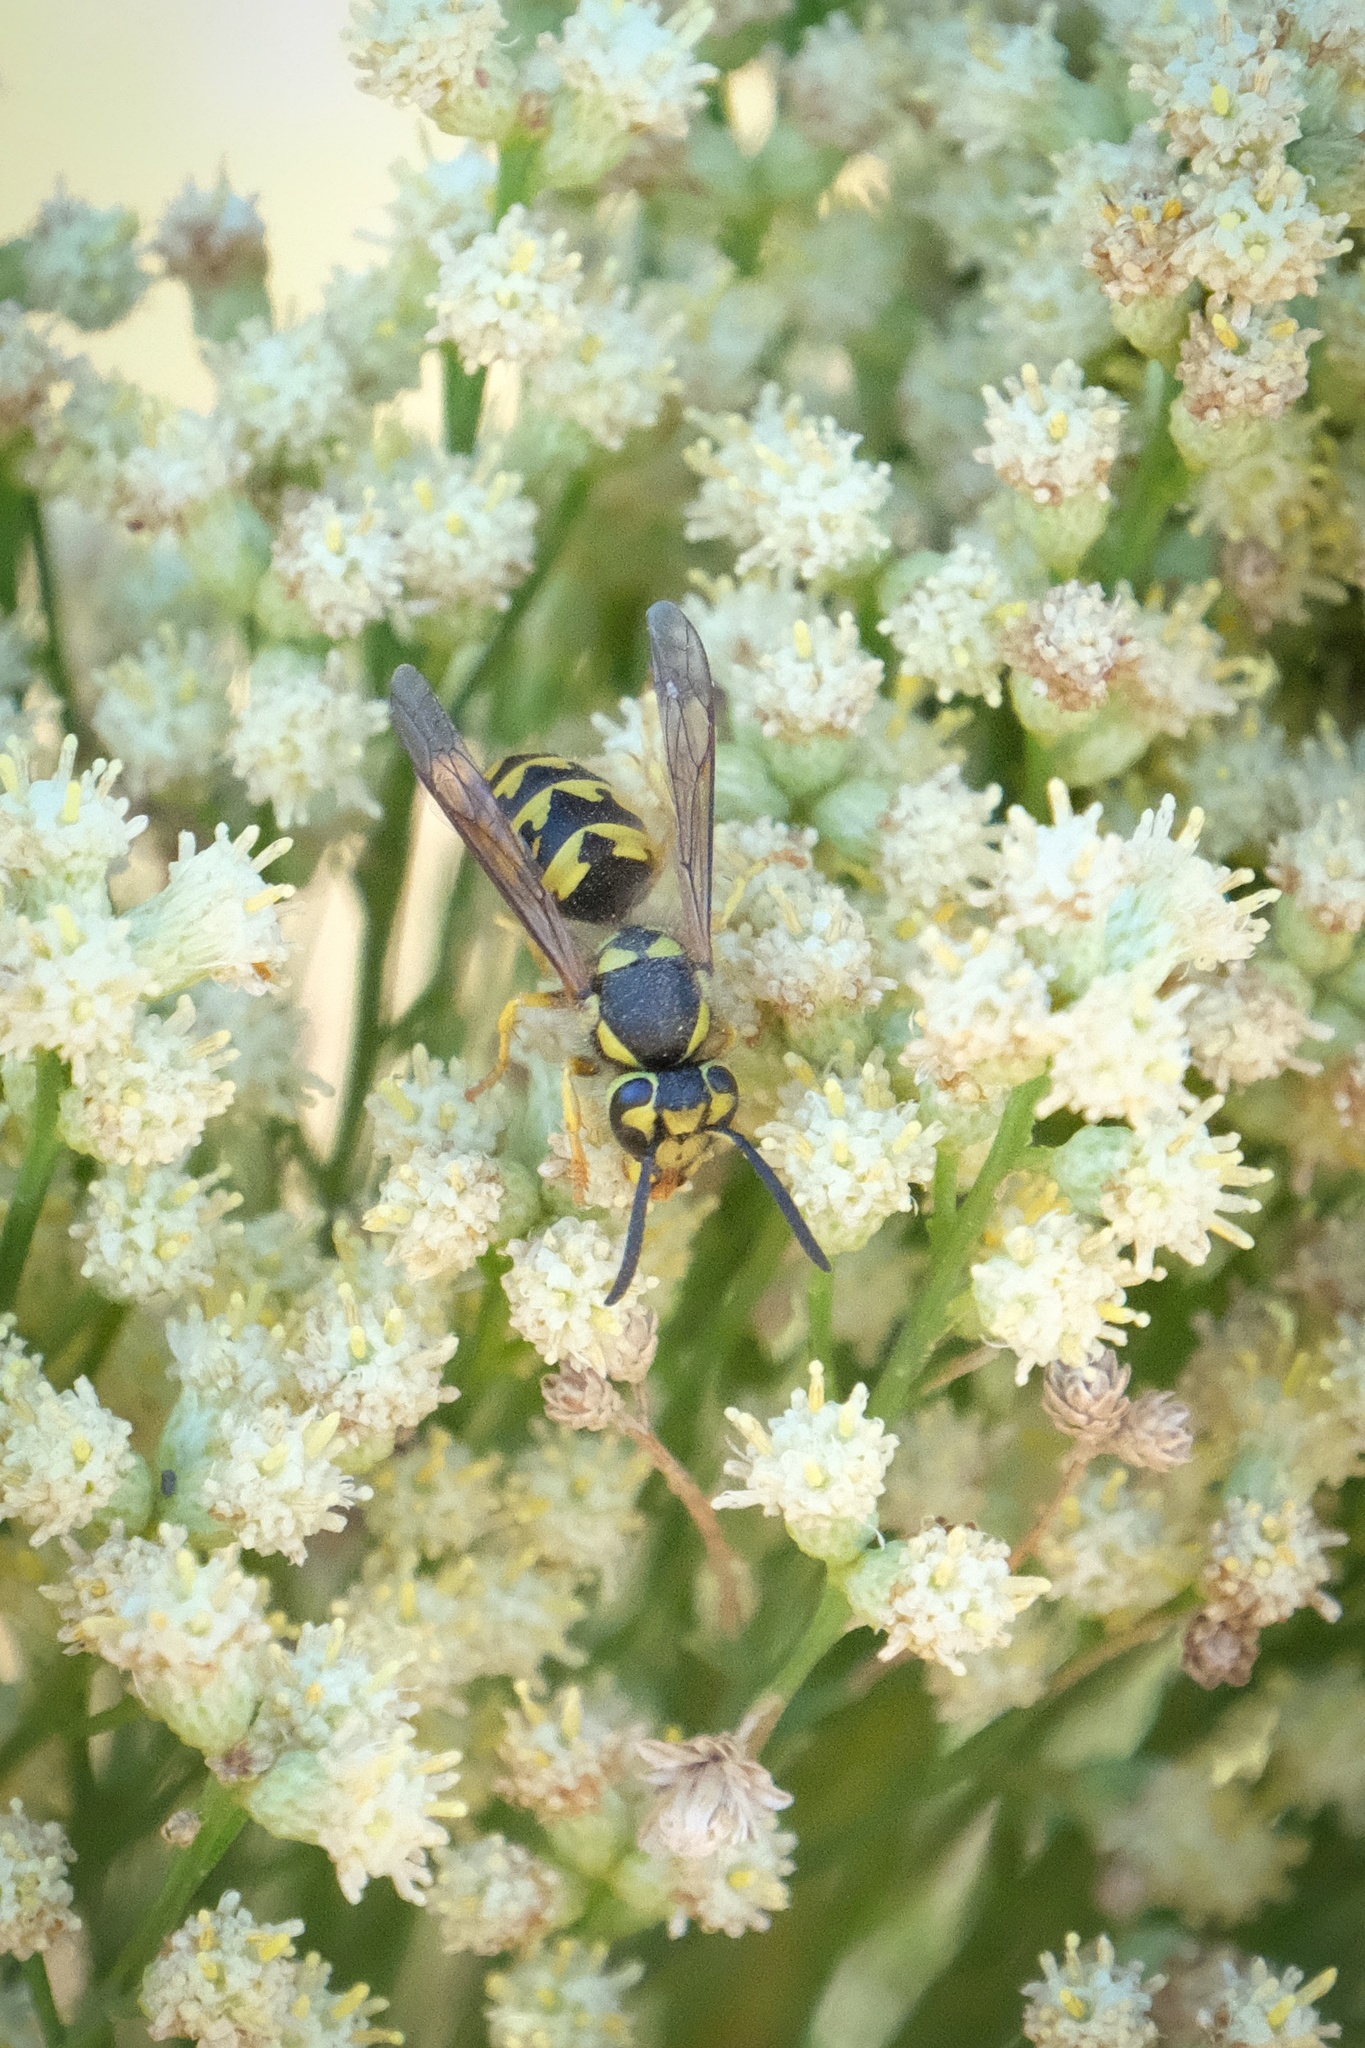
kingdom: Animalia
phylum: Arthropoda
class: Insecta
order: Hymenoptera
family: Vespidae
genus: Vespula
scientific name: Vespula pensylvanica
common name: Western yellowjacket
